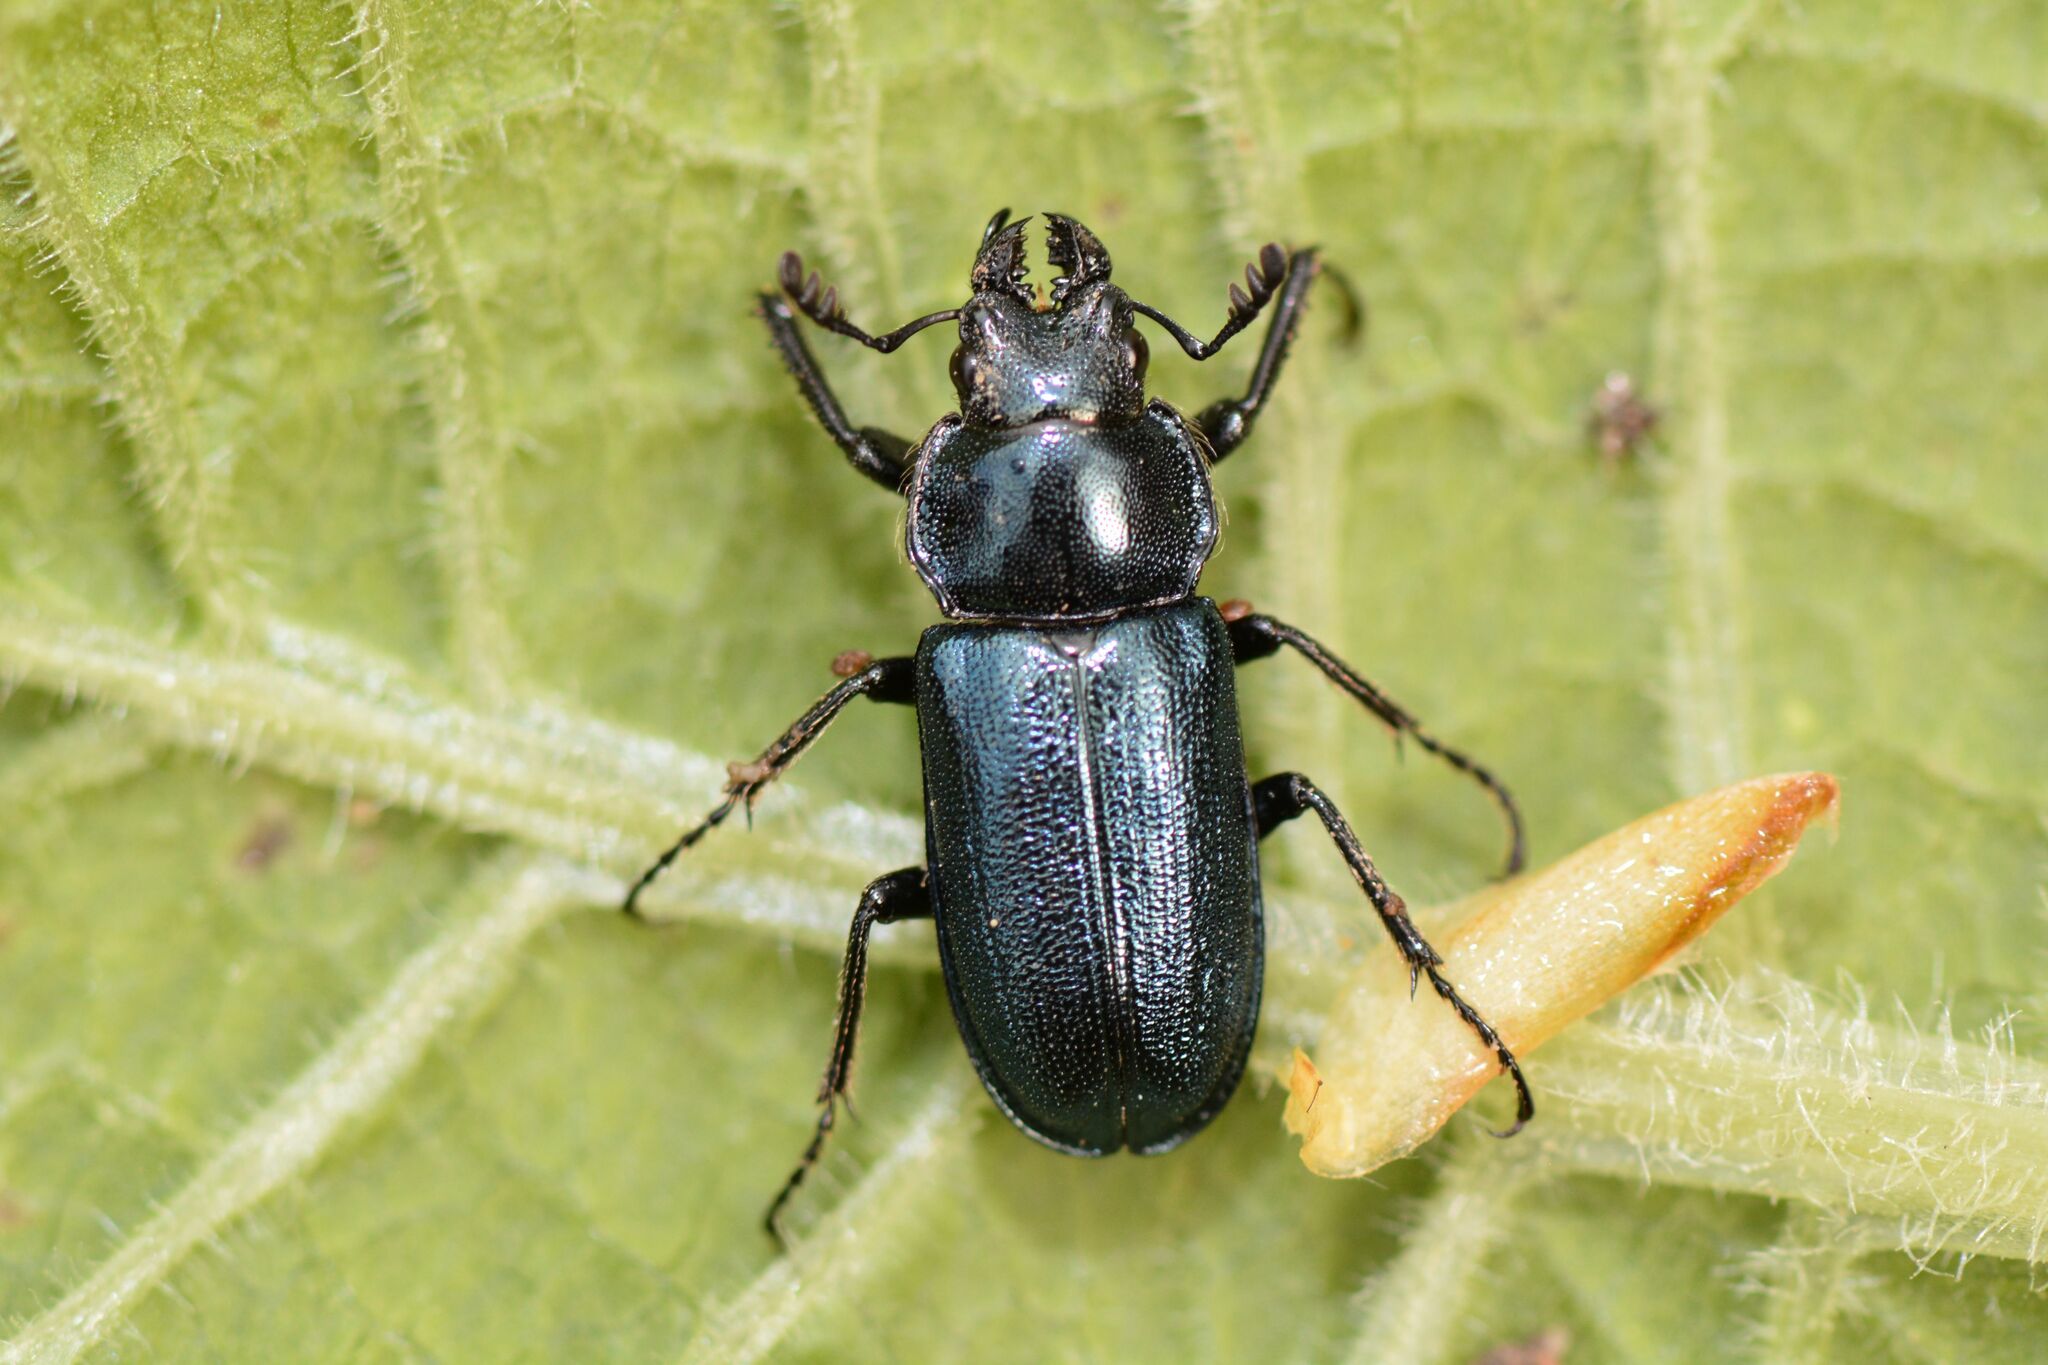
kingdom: Animalia
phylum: Arthropoda
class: Insecta
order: Coleoptera
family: Lucanidae
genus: Platycerus
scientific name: Platycerus caraboides
